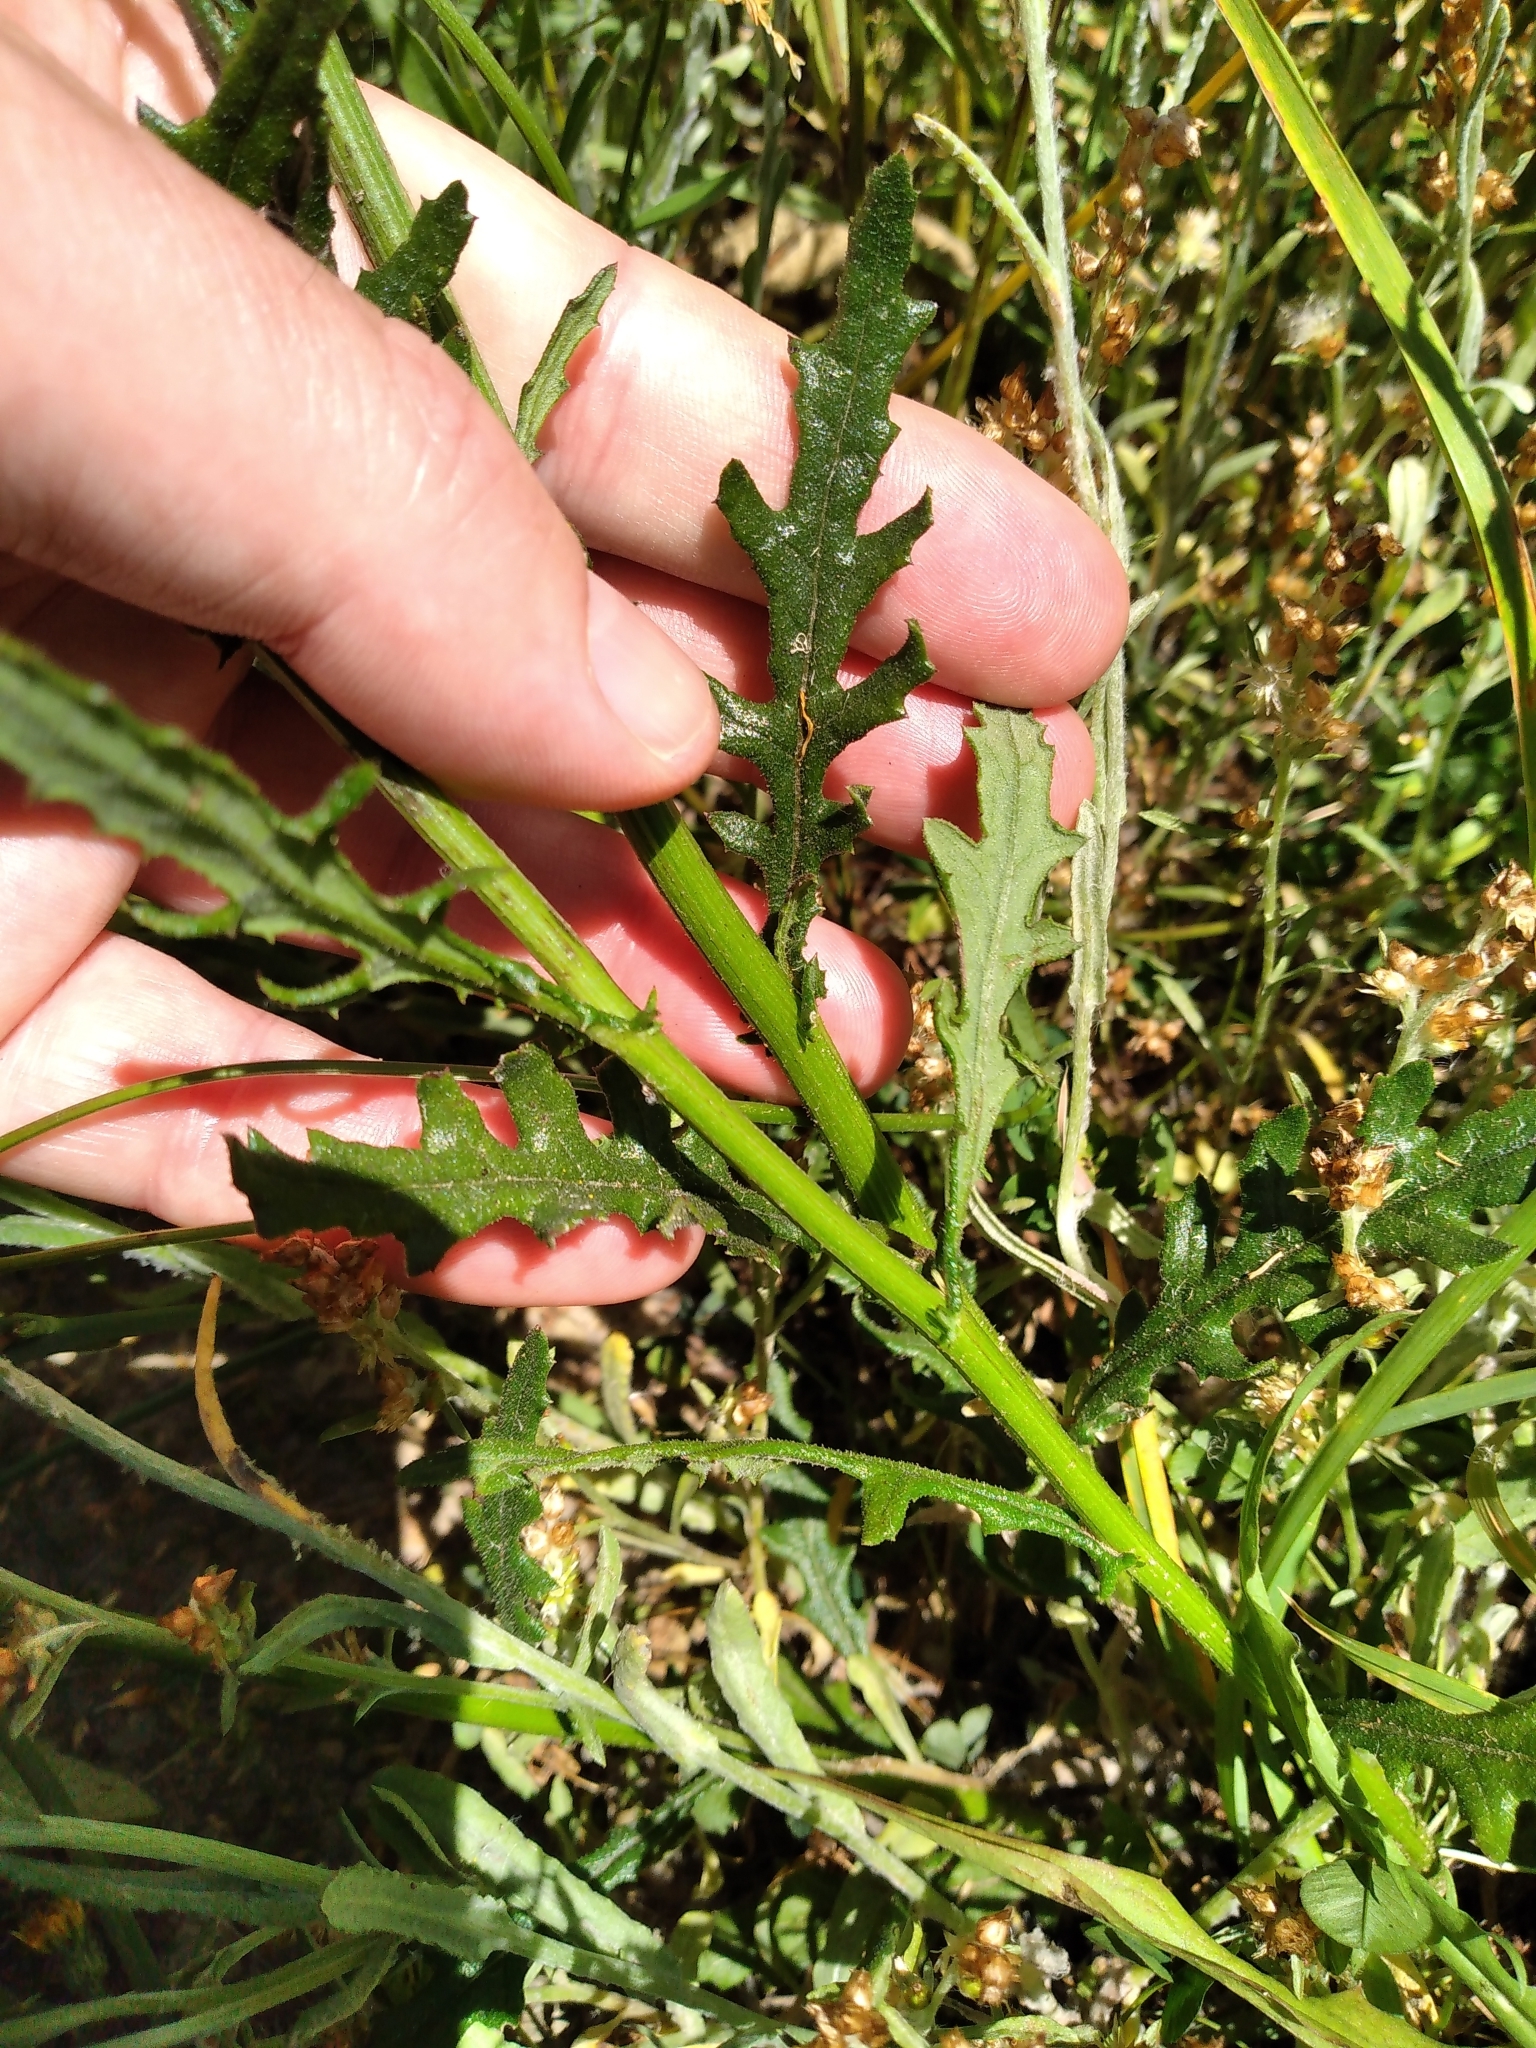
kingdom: Plantae
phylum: Tracheophyta
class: Magnoliopsida
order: Asterales
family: Asteraceae
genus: Senecio
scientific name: Senecio hispidulus
